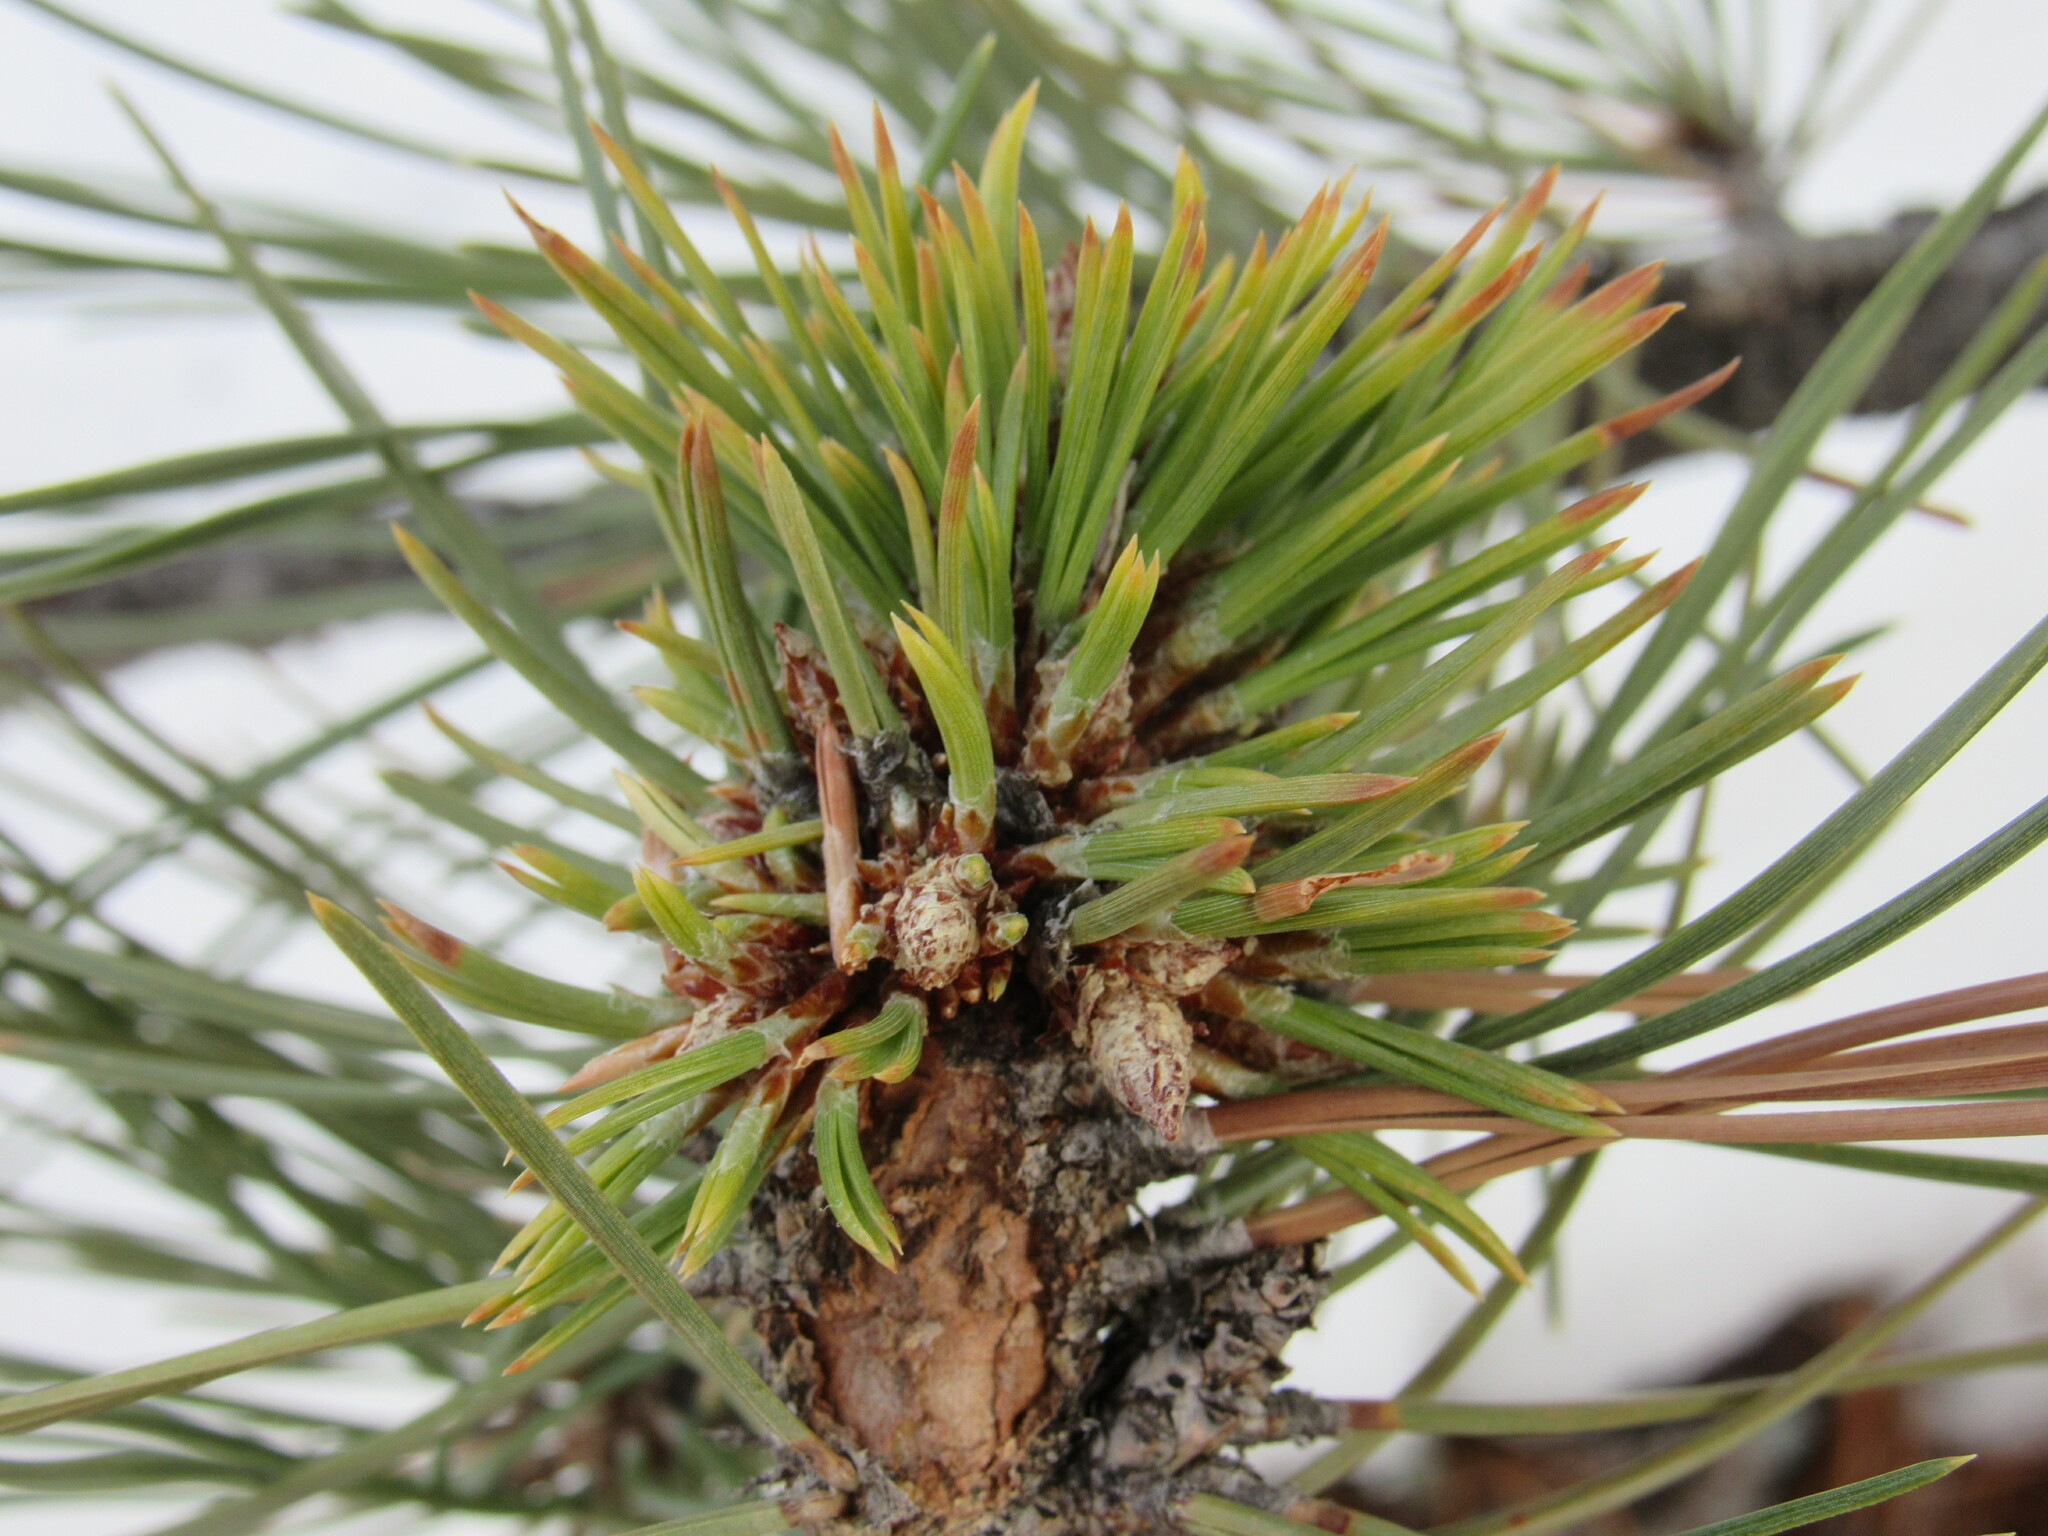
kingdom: Plantae
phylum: Tracheophyta
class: Pinopsida
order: Pinales
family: Pinaceae
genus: Pinus
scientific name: Pinus ponderosa
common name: Western yellow-pine
